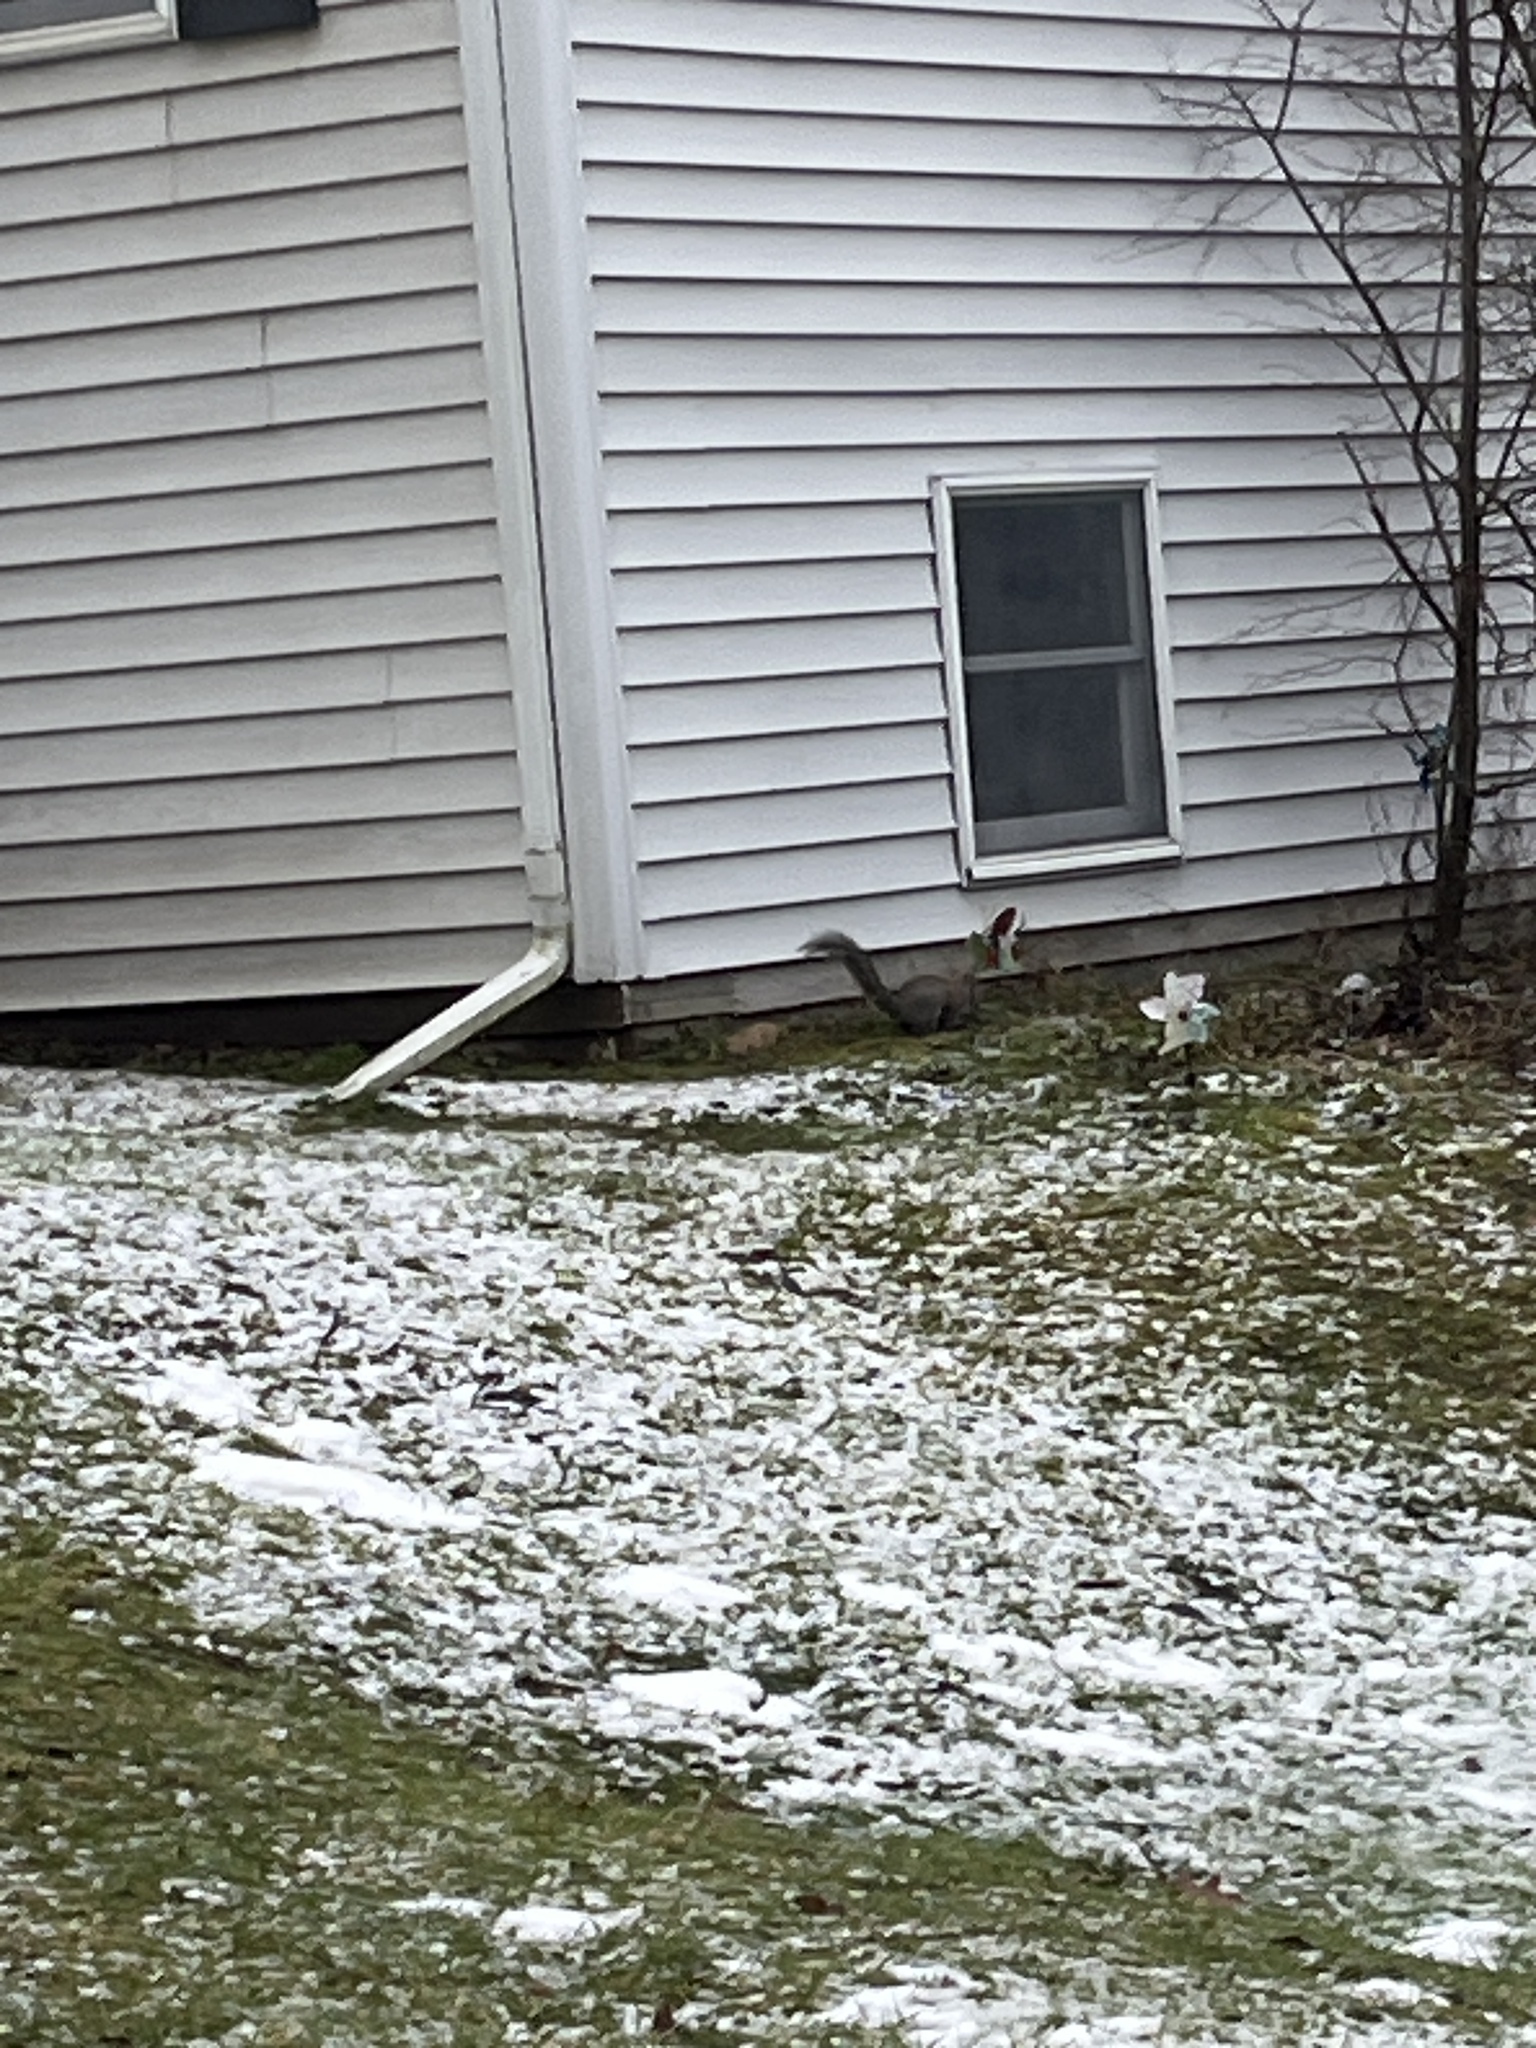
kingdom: Animalia
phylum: Chordata
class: Mammalia
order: Rodentia
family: Sciuridae
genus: Sciurus
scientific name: Sciurus carolinensis
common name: Eastern gray squirrel
